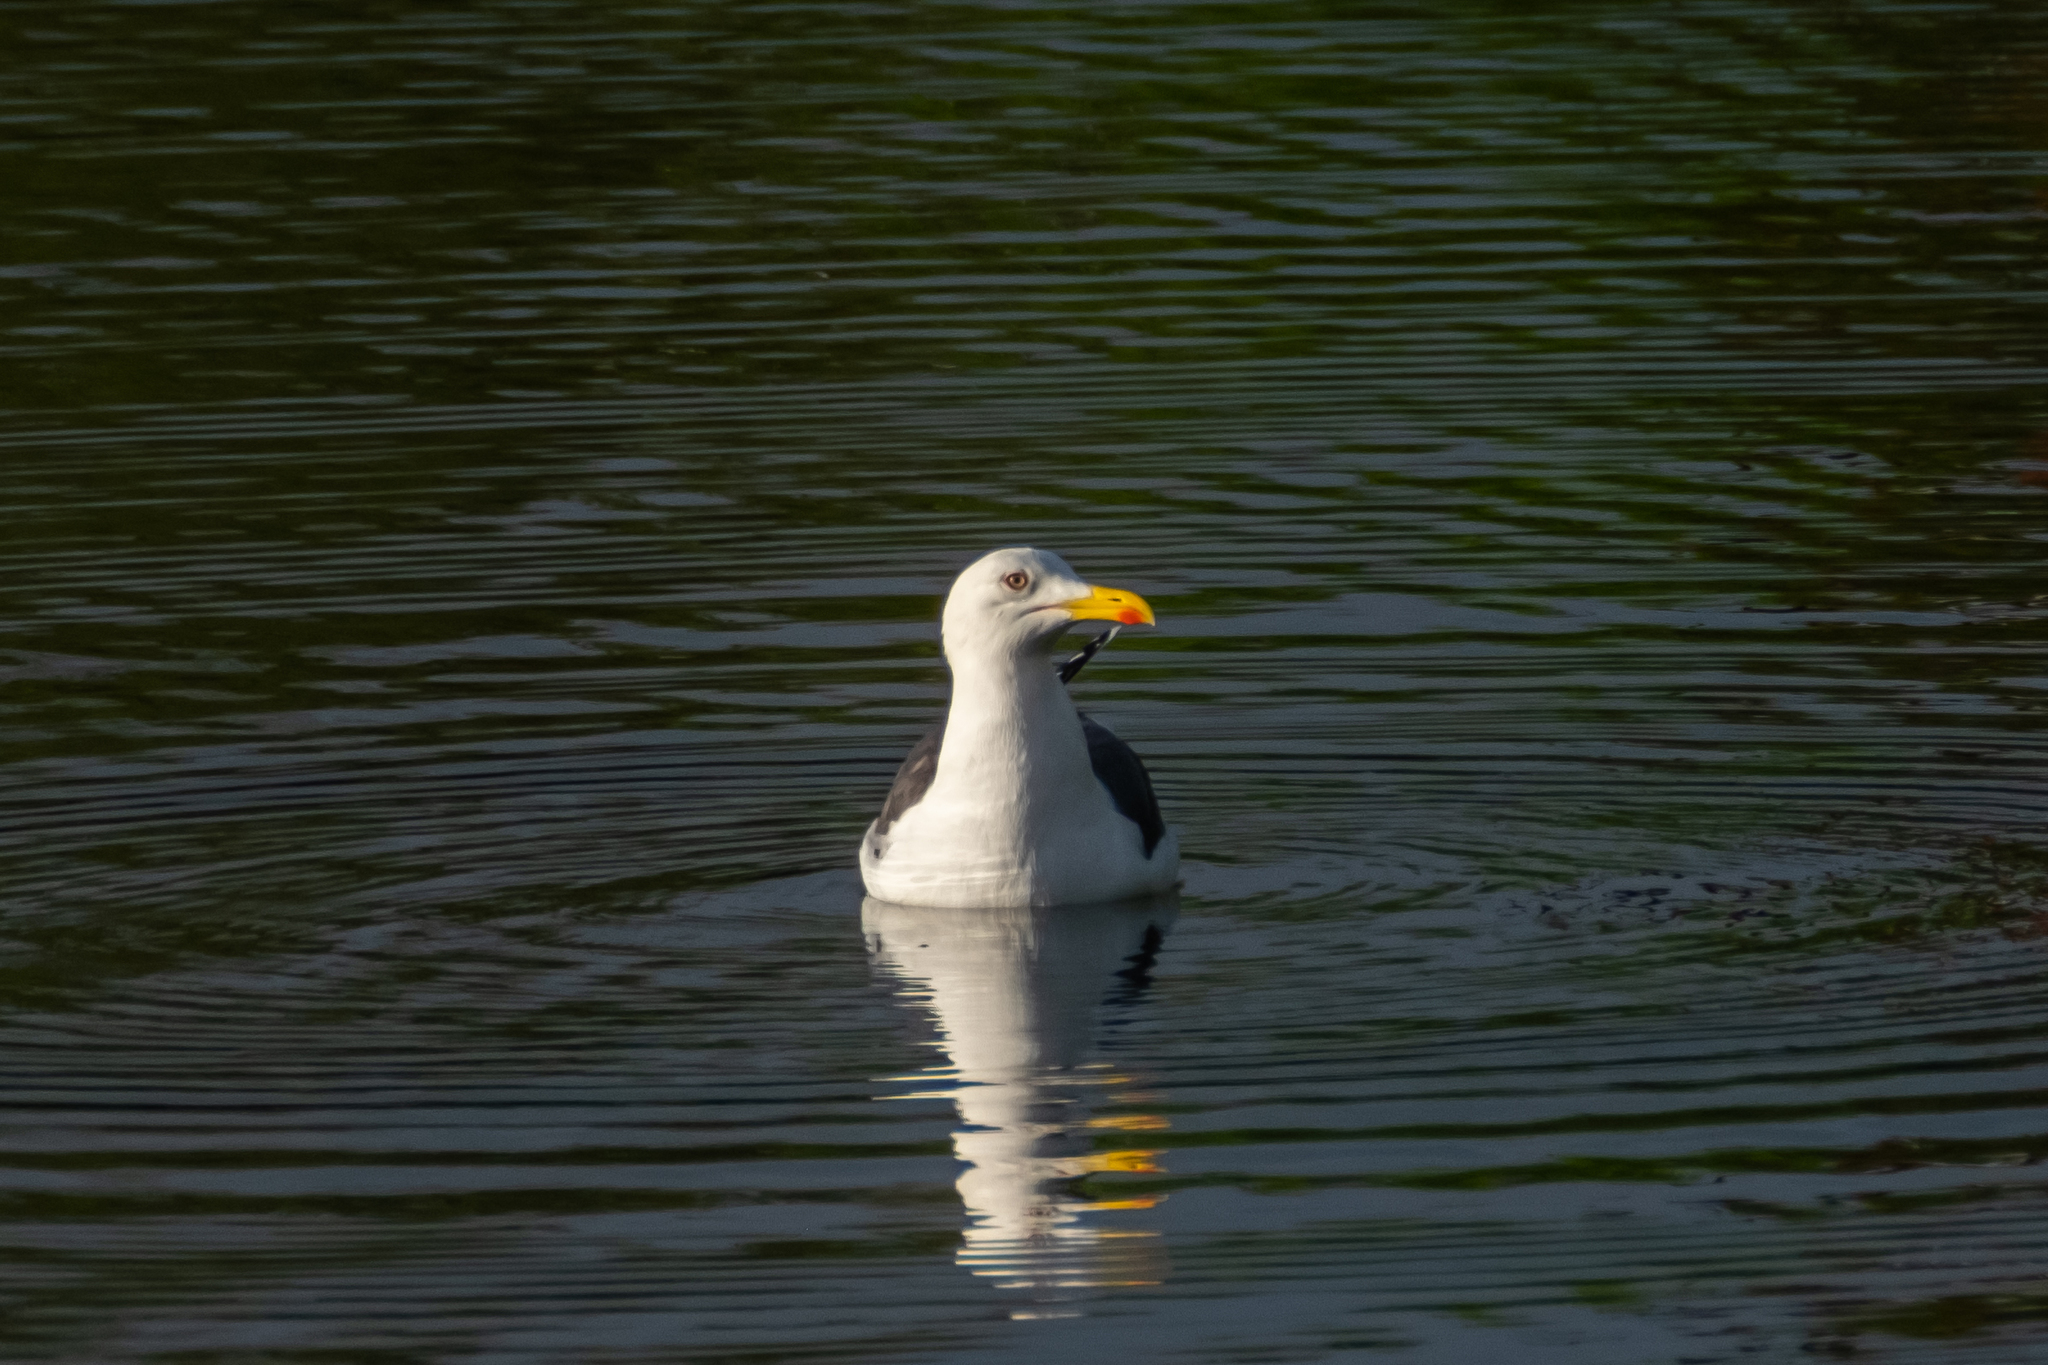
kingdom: Animalia
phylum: Chordata
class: Aves
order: Charadriiformes
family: Laridae
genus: Larus
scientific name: Larus fuscus
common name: Lesser black-backed gull
